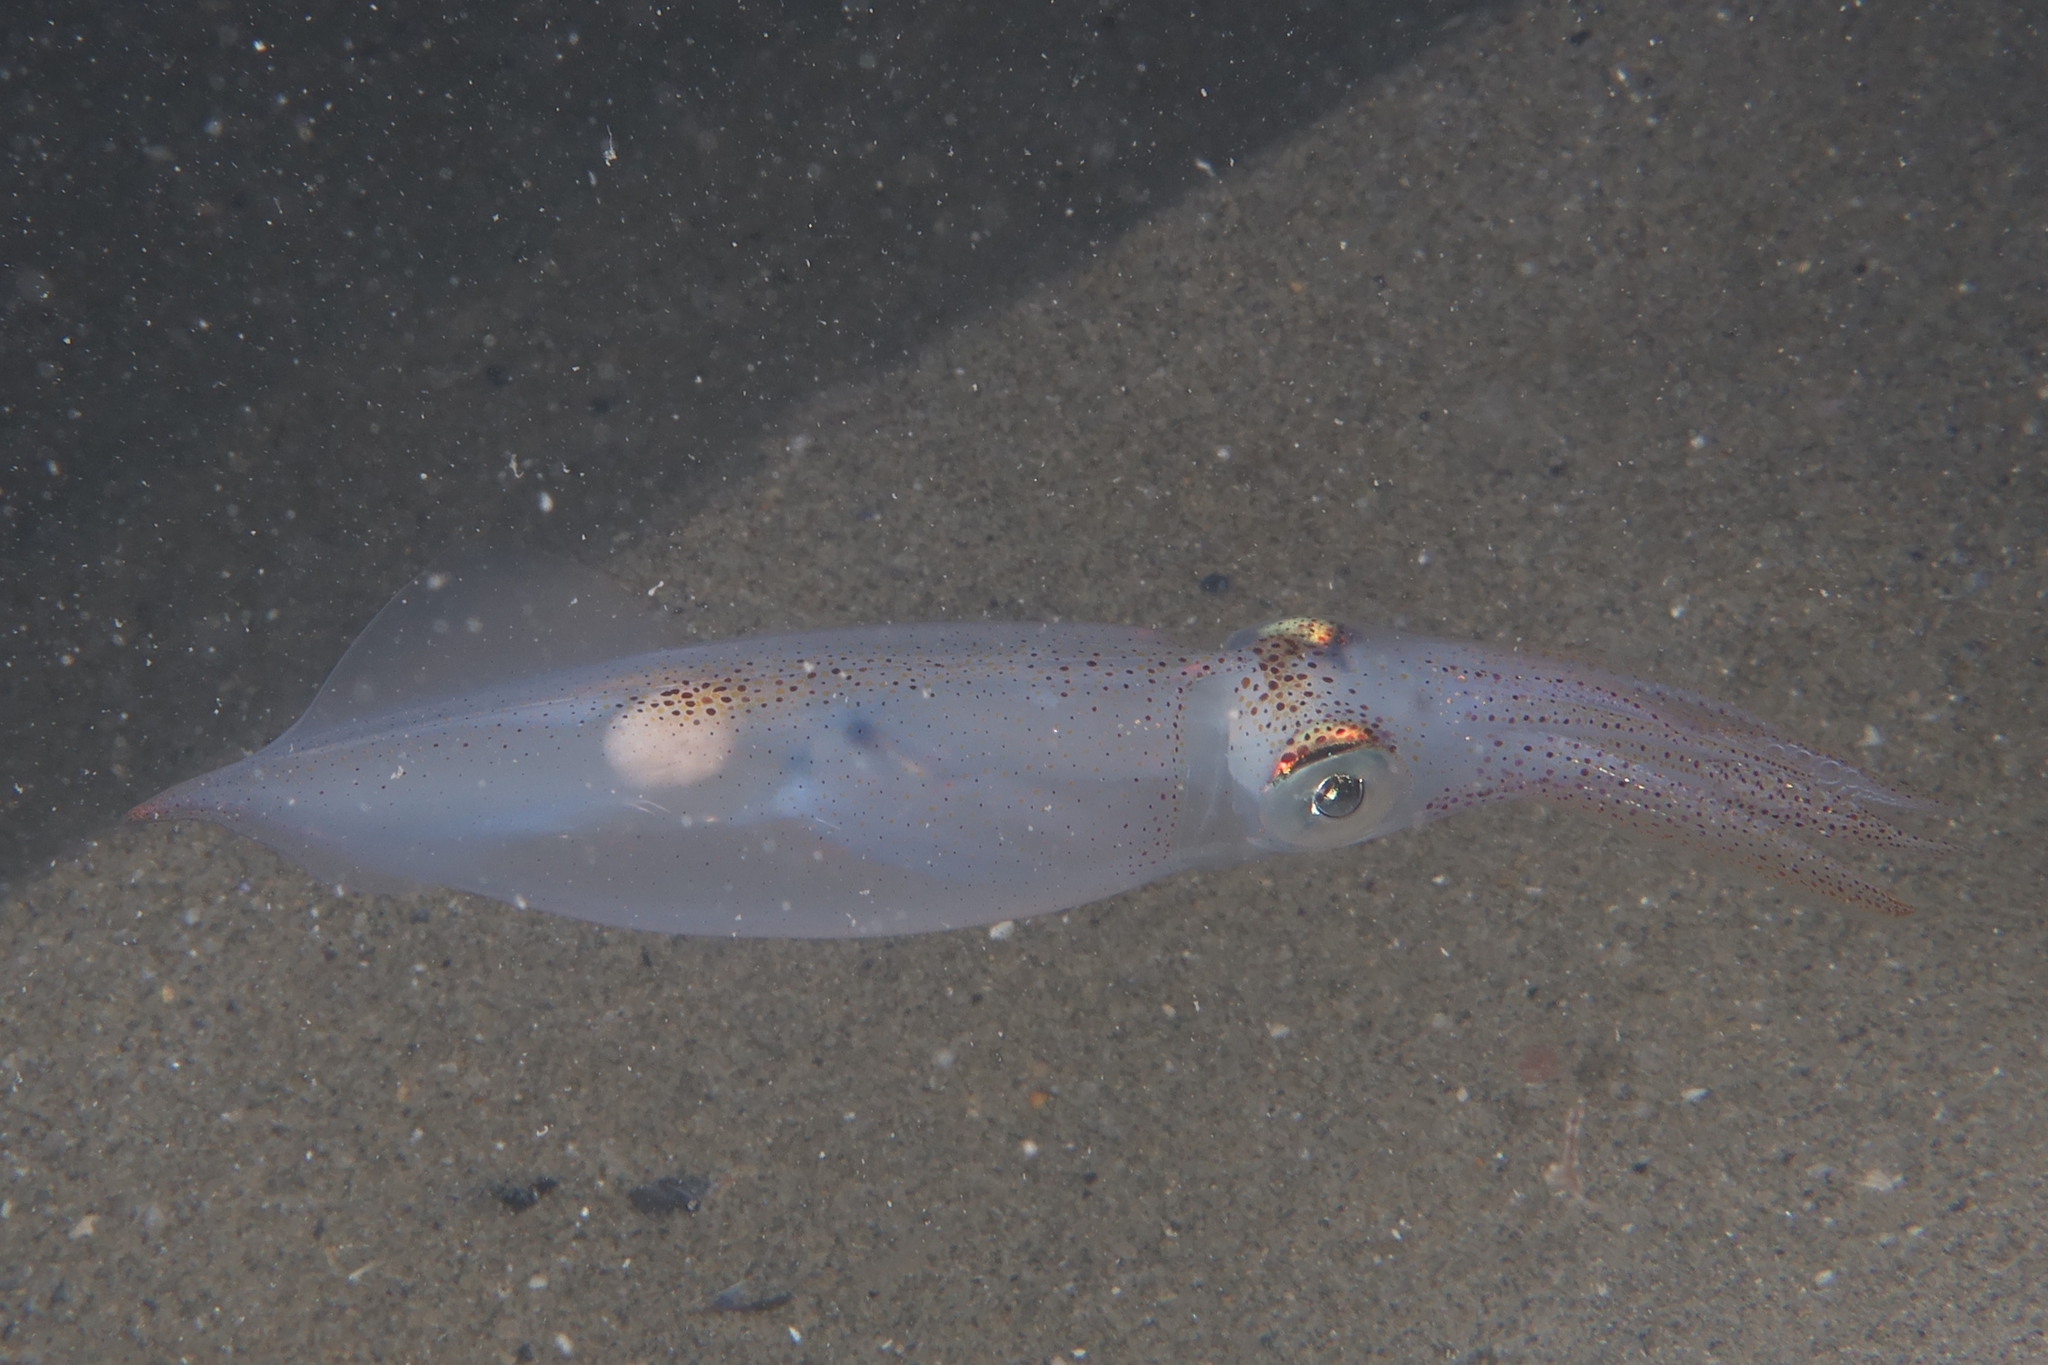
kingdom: Animalia
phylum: Mollusca
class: Cephalopoda
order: Myopsida
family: Loliginidae
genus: Alloteuthis
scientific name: Alloteuthis media
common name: Little squid
